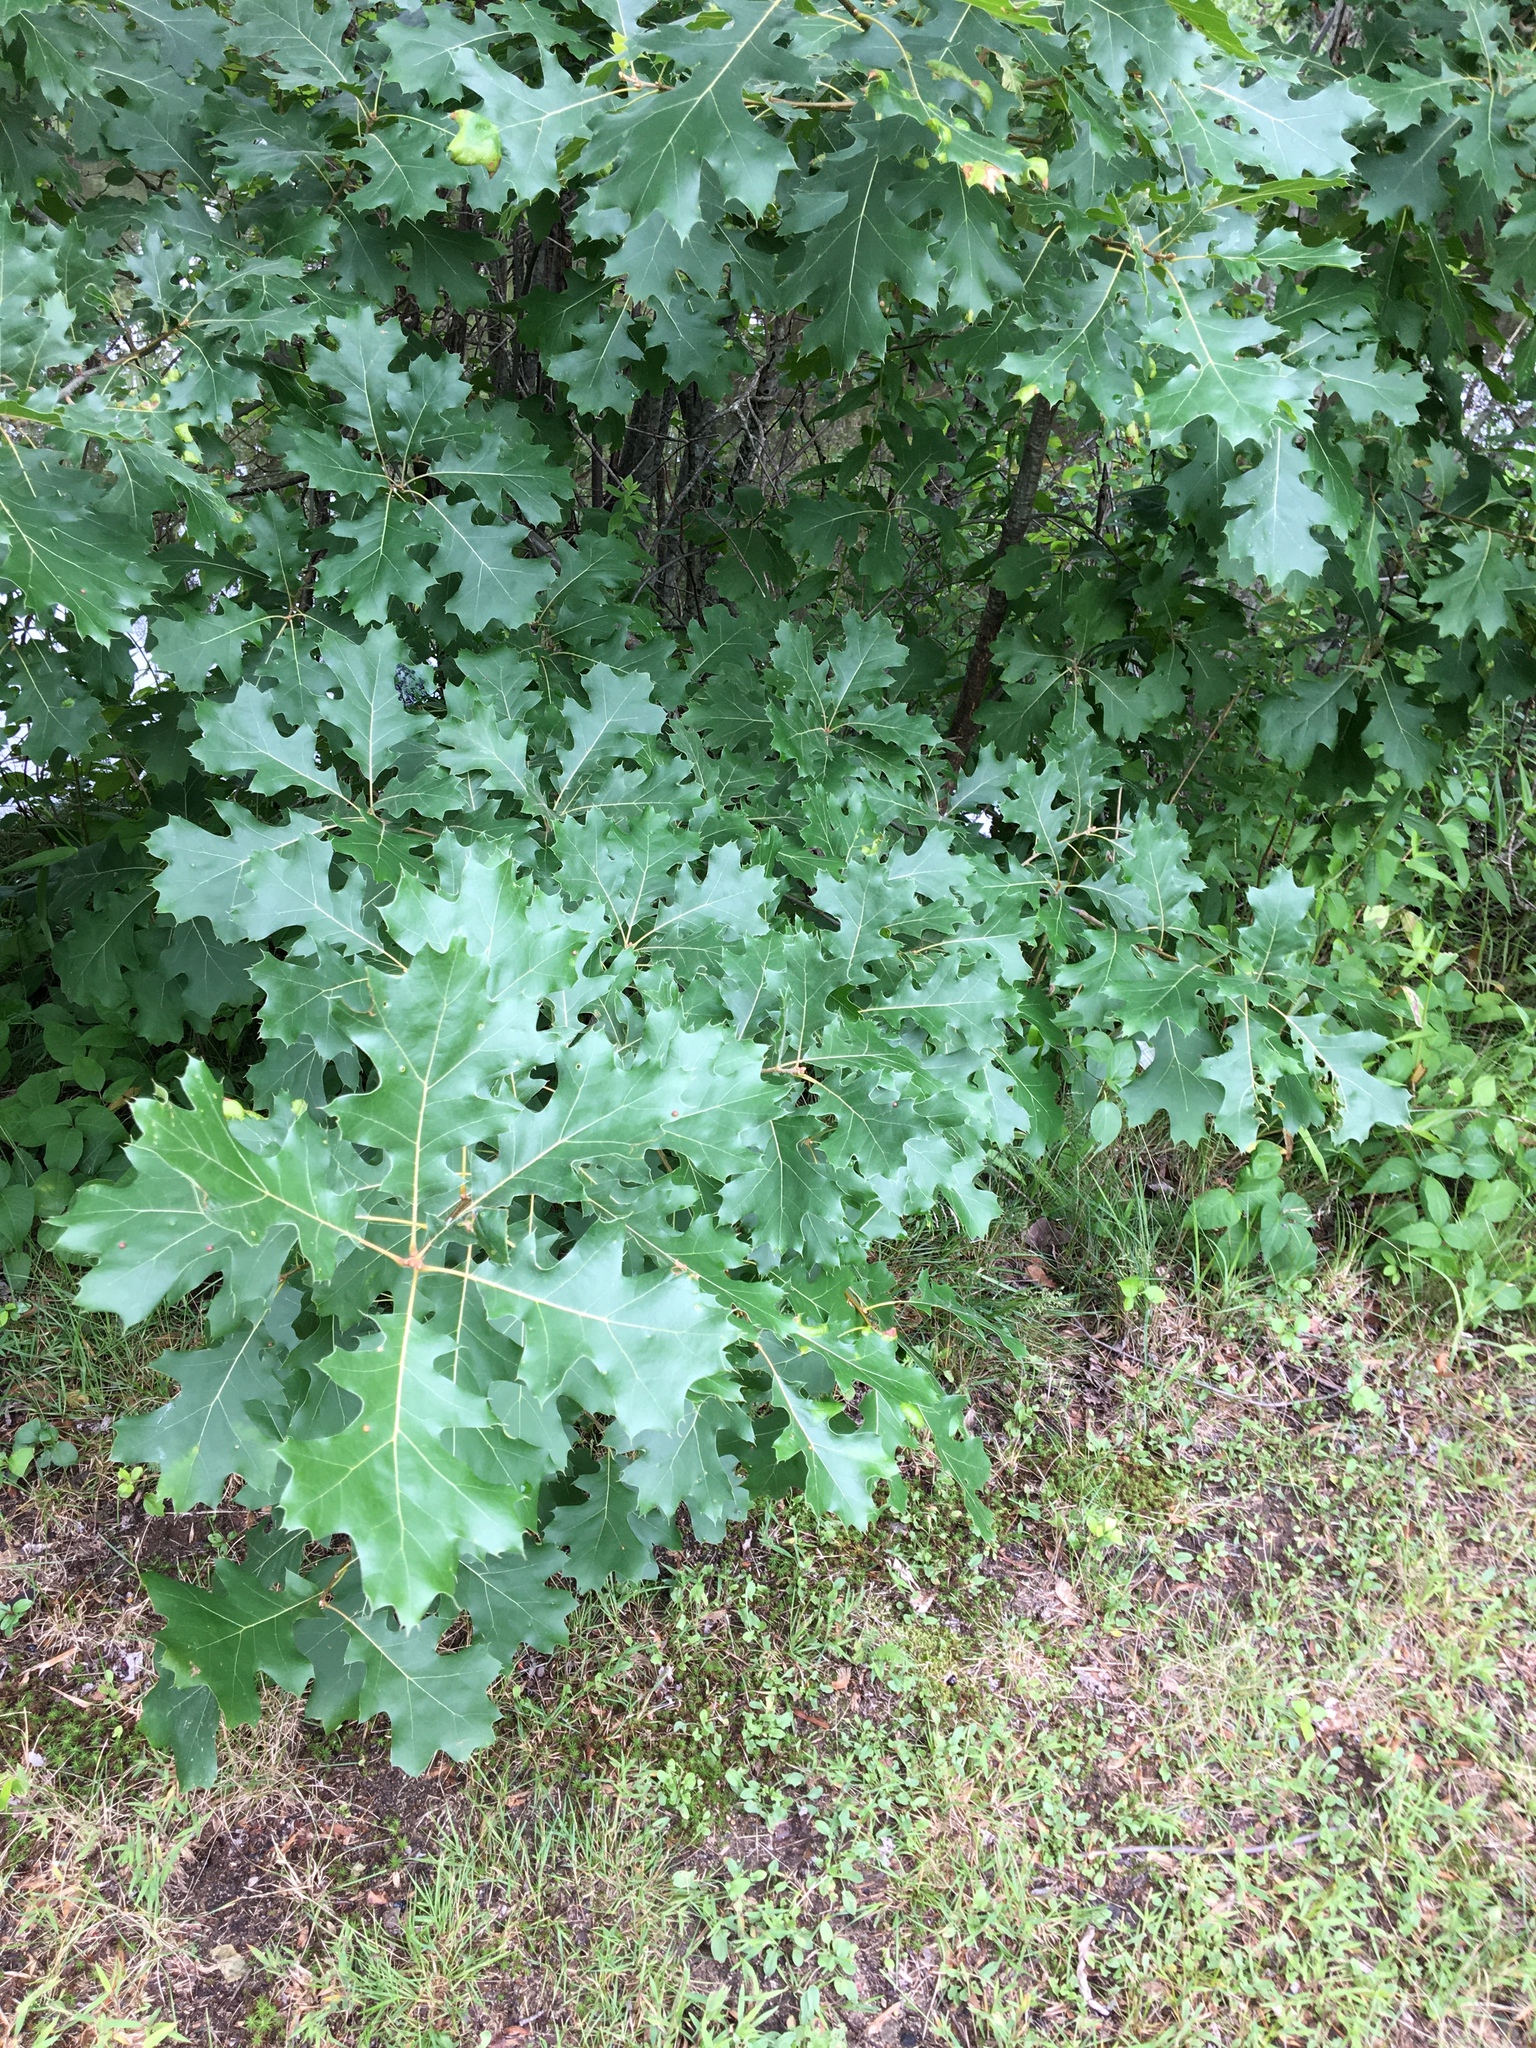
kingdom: Plantae
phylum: Tracheophyta
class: Magnoliopsida
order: Fagales
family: Fagaceae
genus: Quercus
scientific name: Quercus
